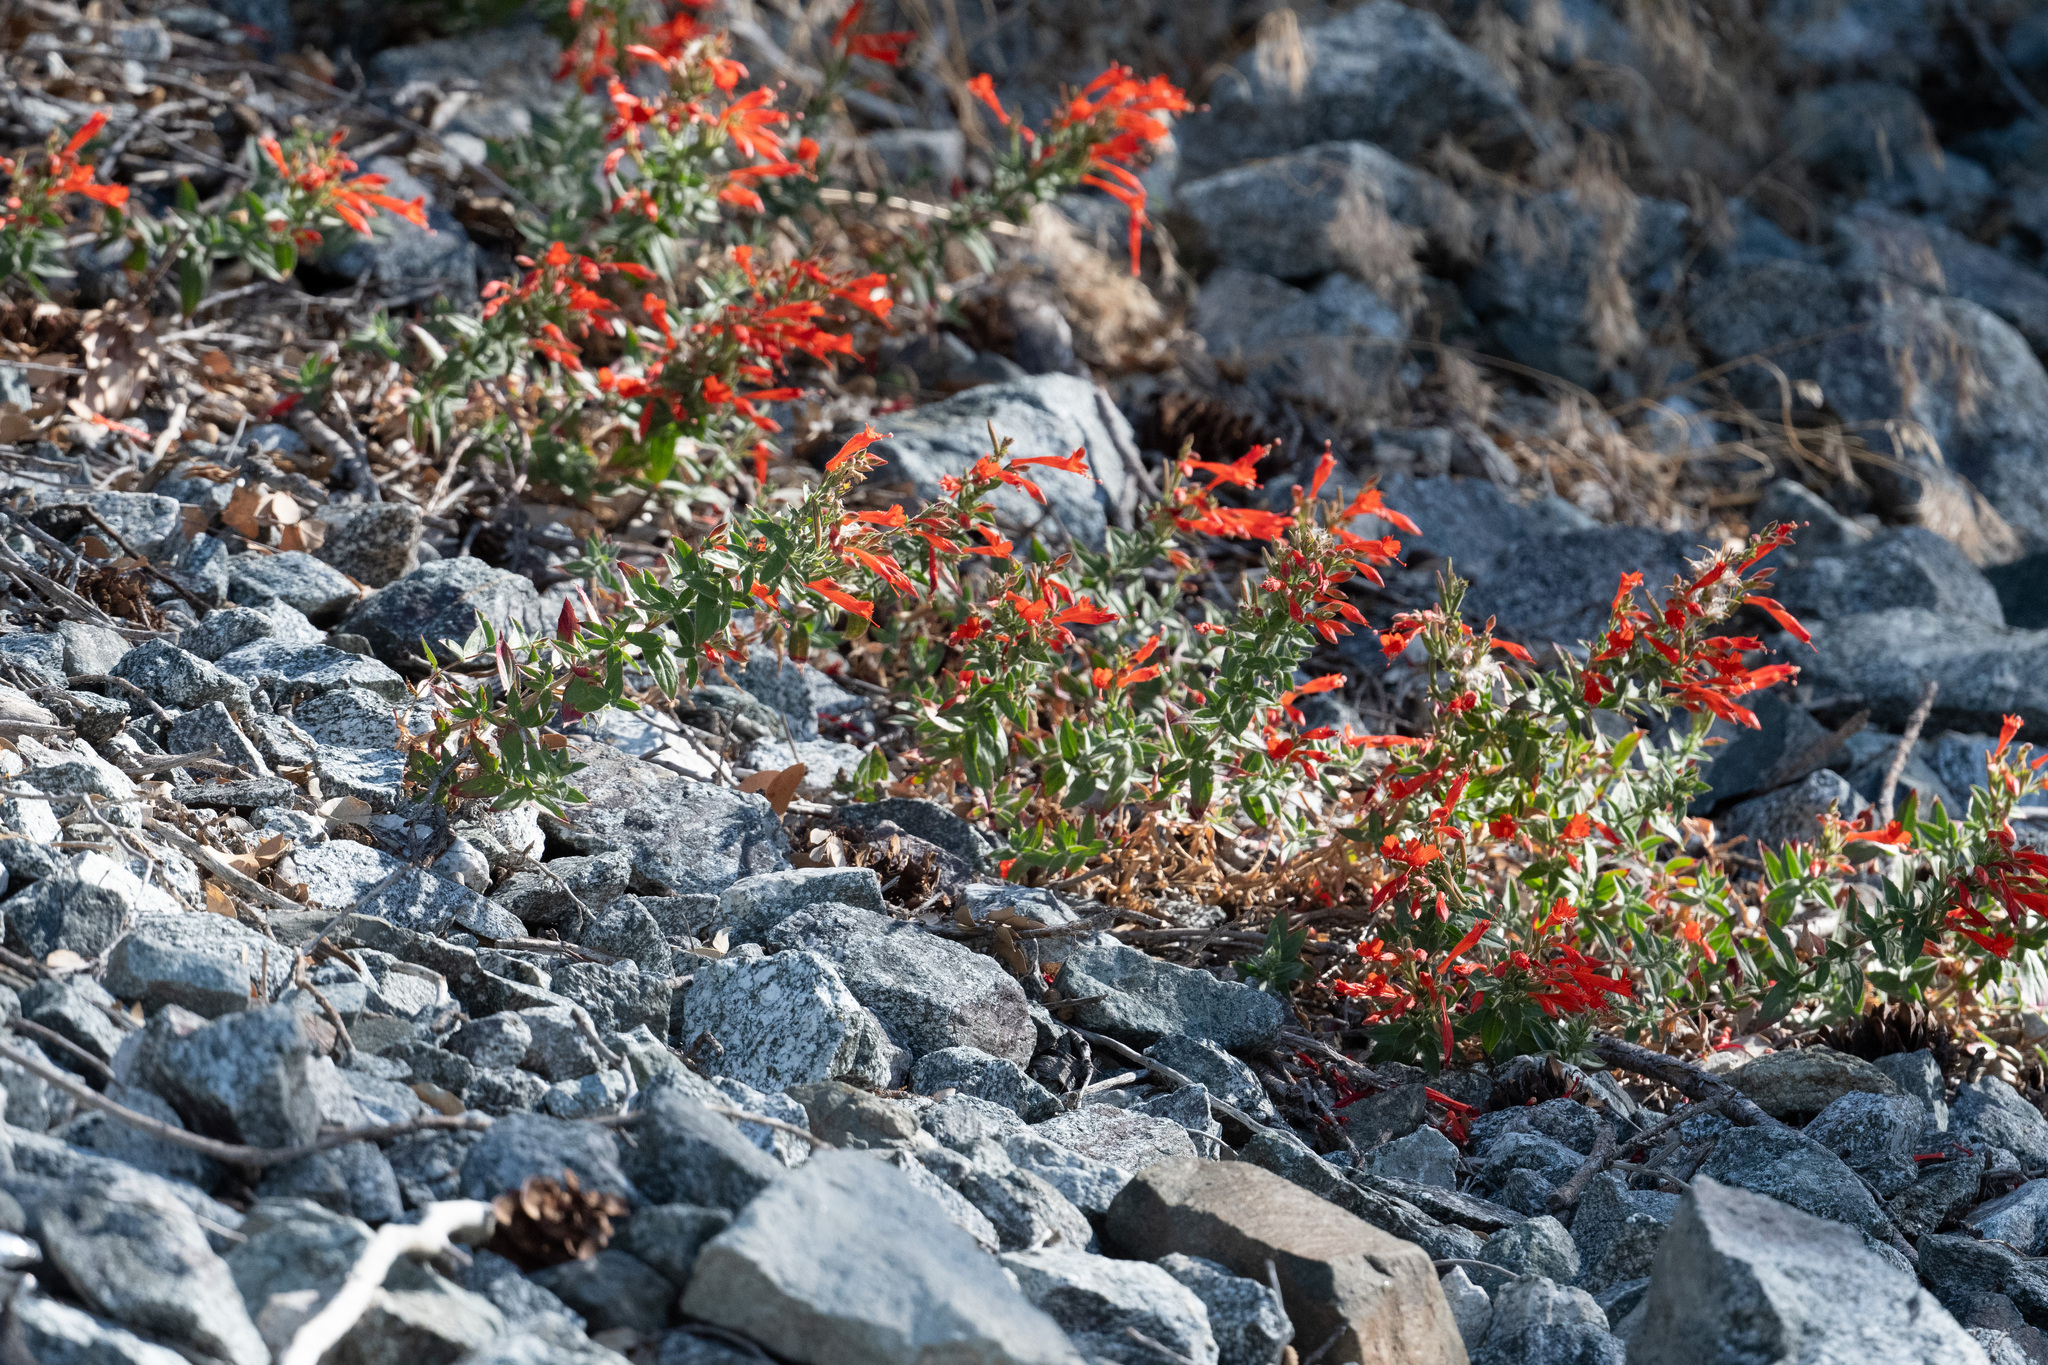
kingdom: Plantae
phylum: Tracheophyta
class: Magnoliopsida
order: Myrtales
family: Onagraceae
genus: Epilobium
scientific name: Epilobium canum
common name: California-fuchsia
